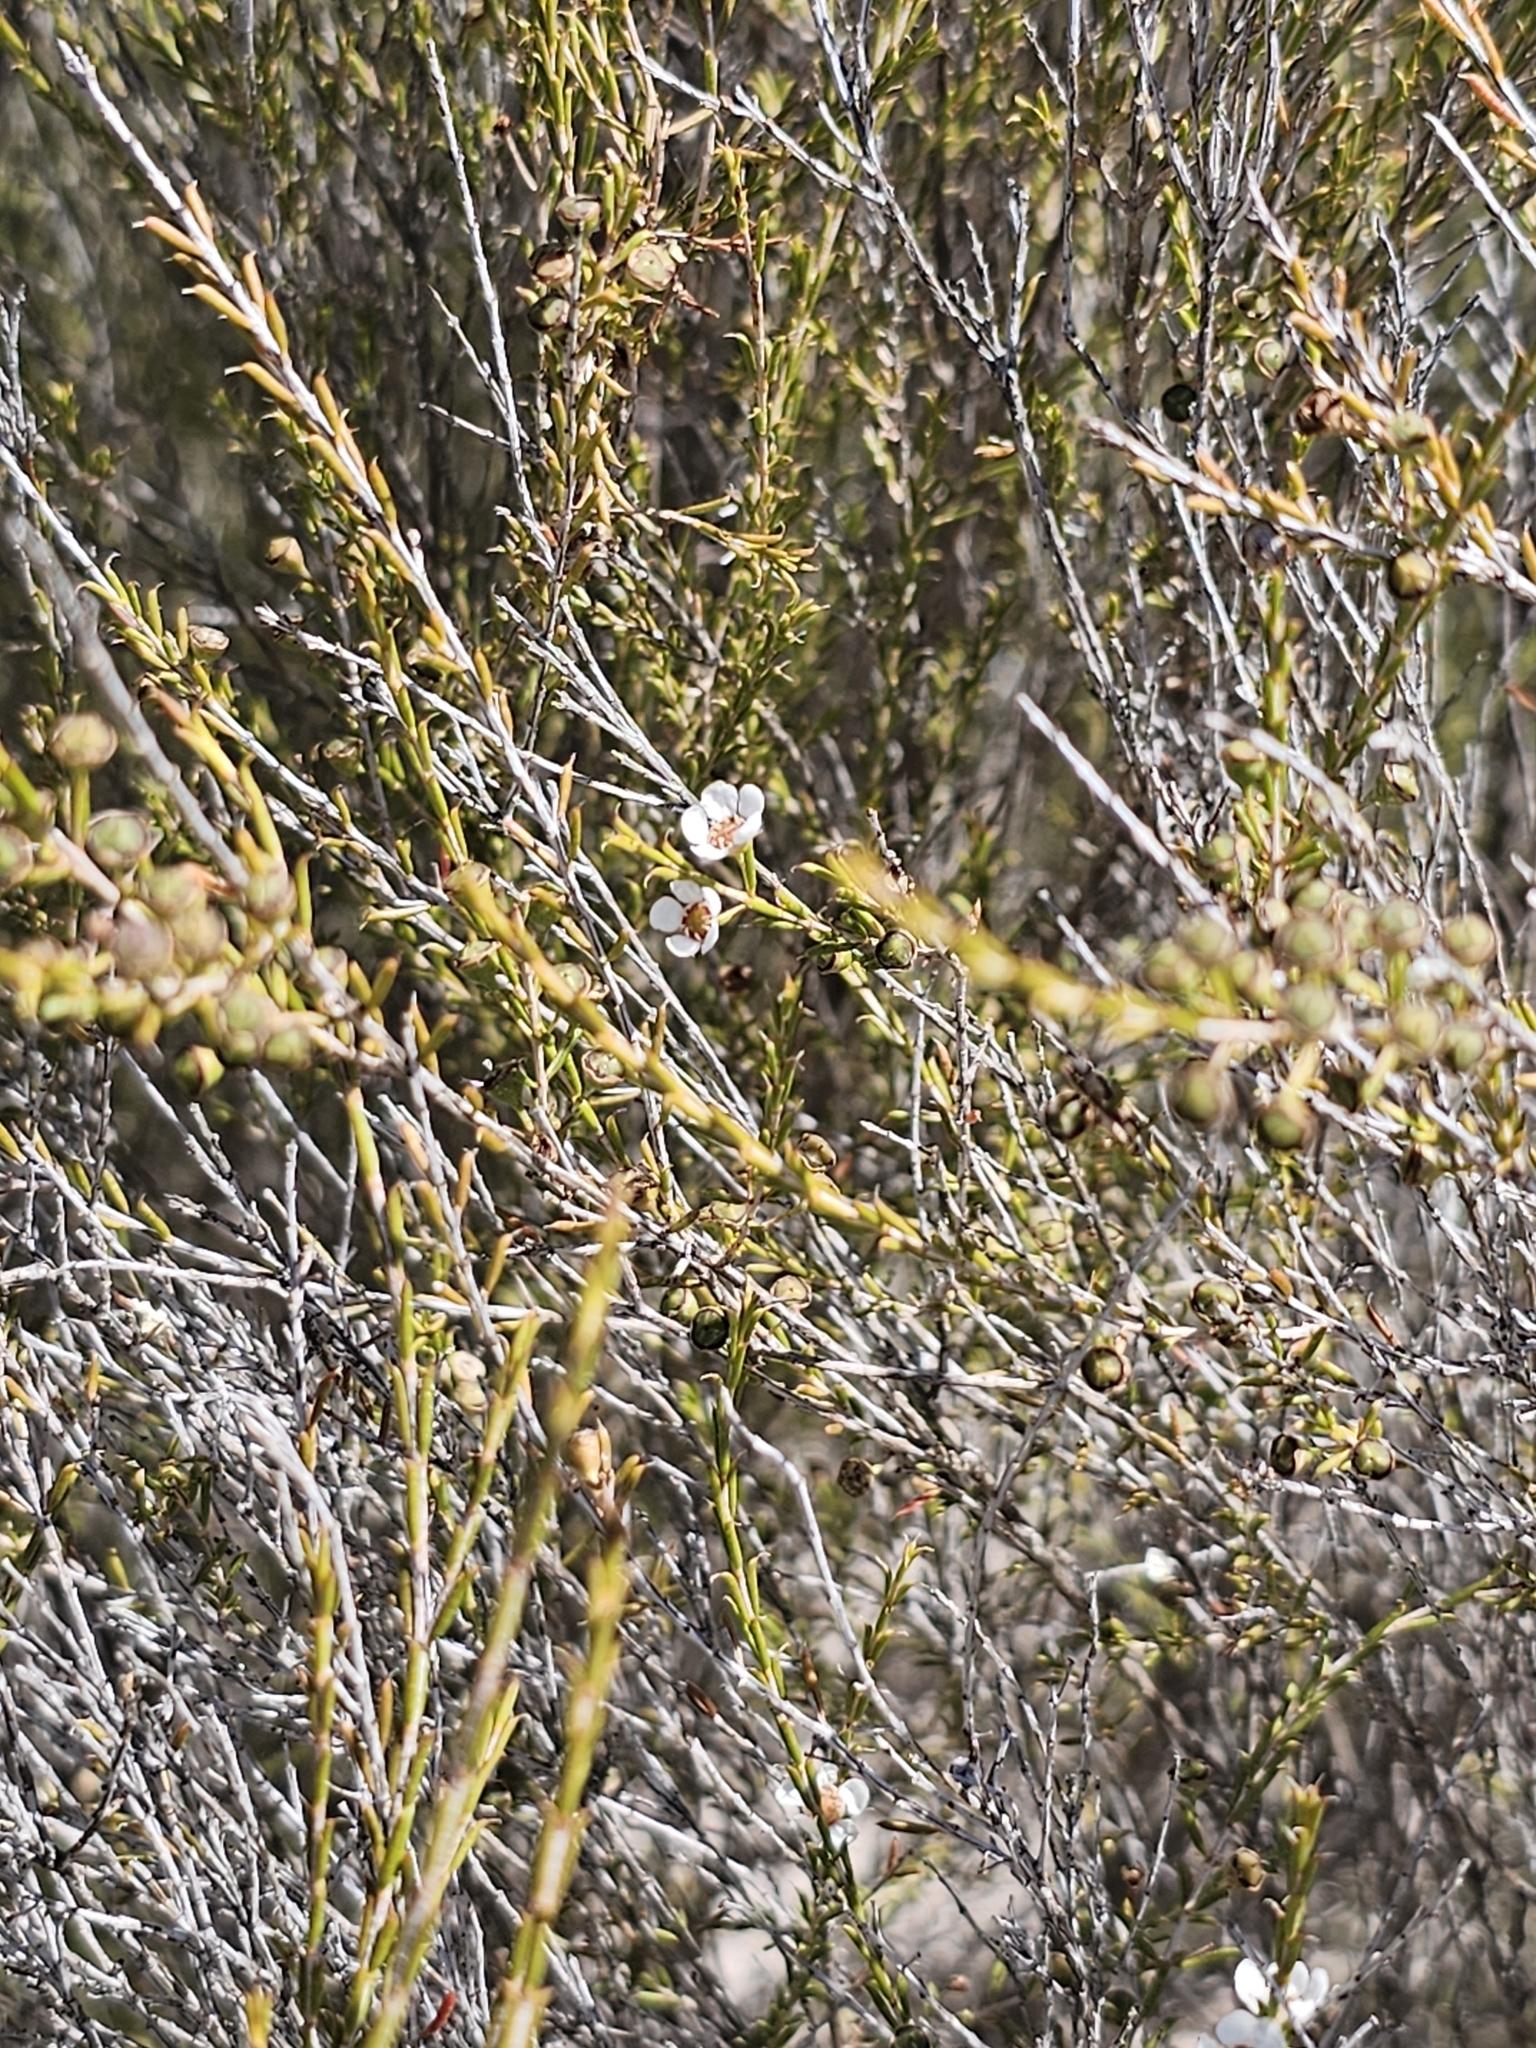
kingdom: Plantae
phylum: Tracheophyta
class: Magnoliopsida
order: Myrtales
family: Myrtaceae
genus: Hysterobaeckea
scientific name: Hysterobaeckea behrii
